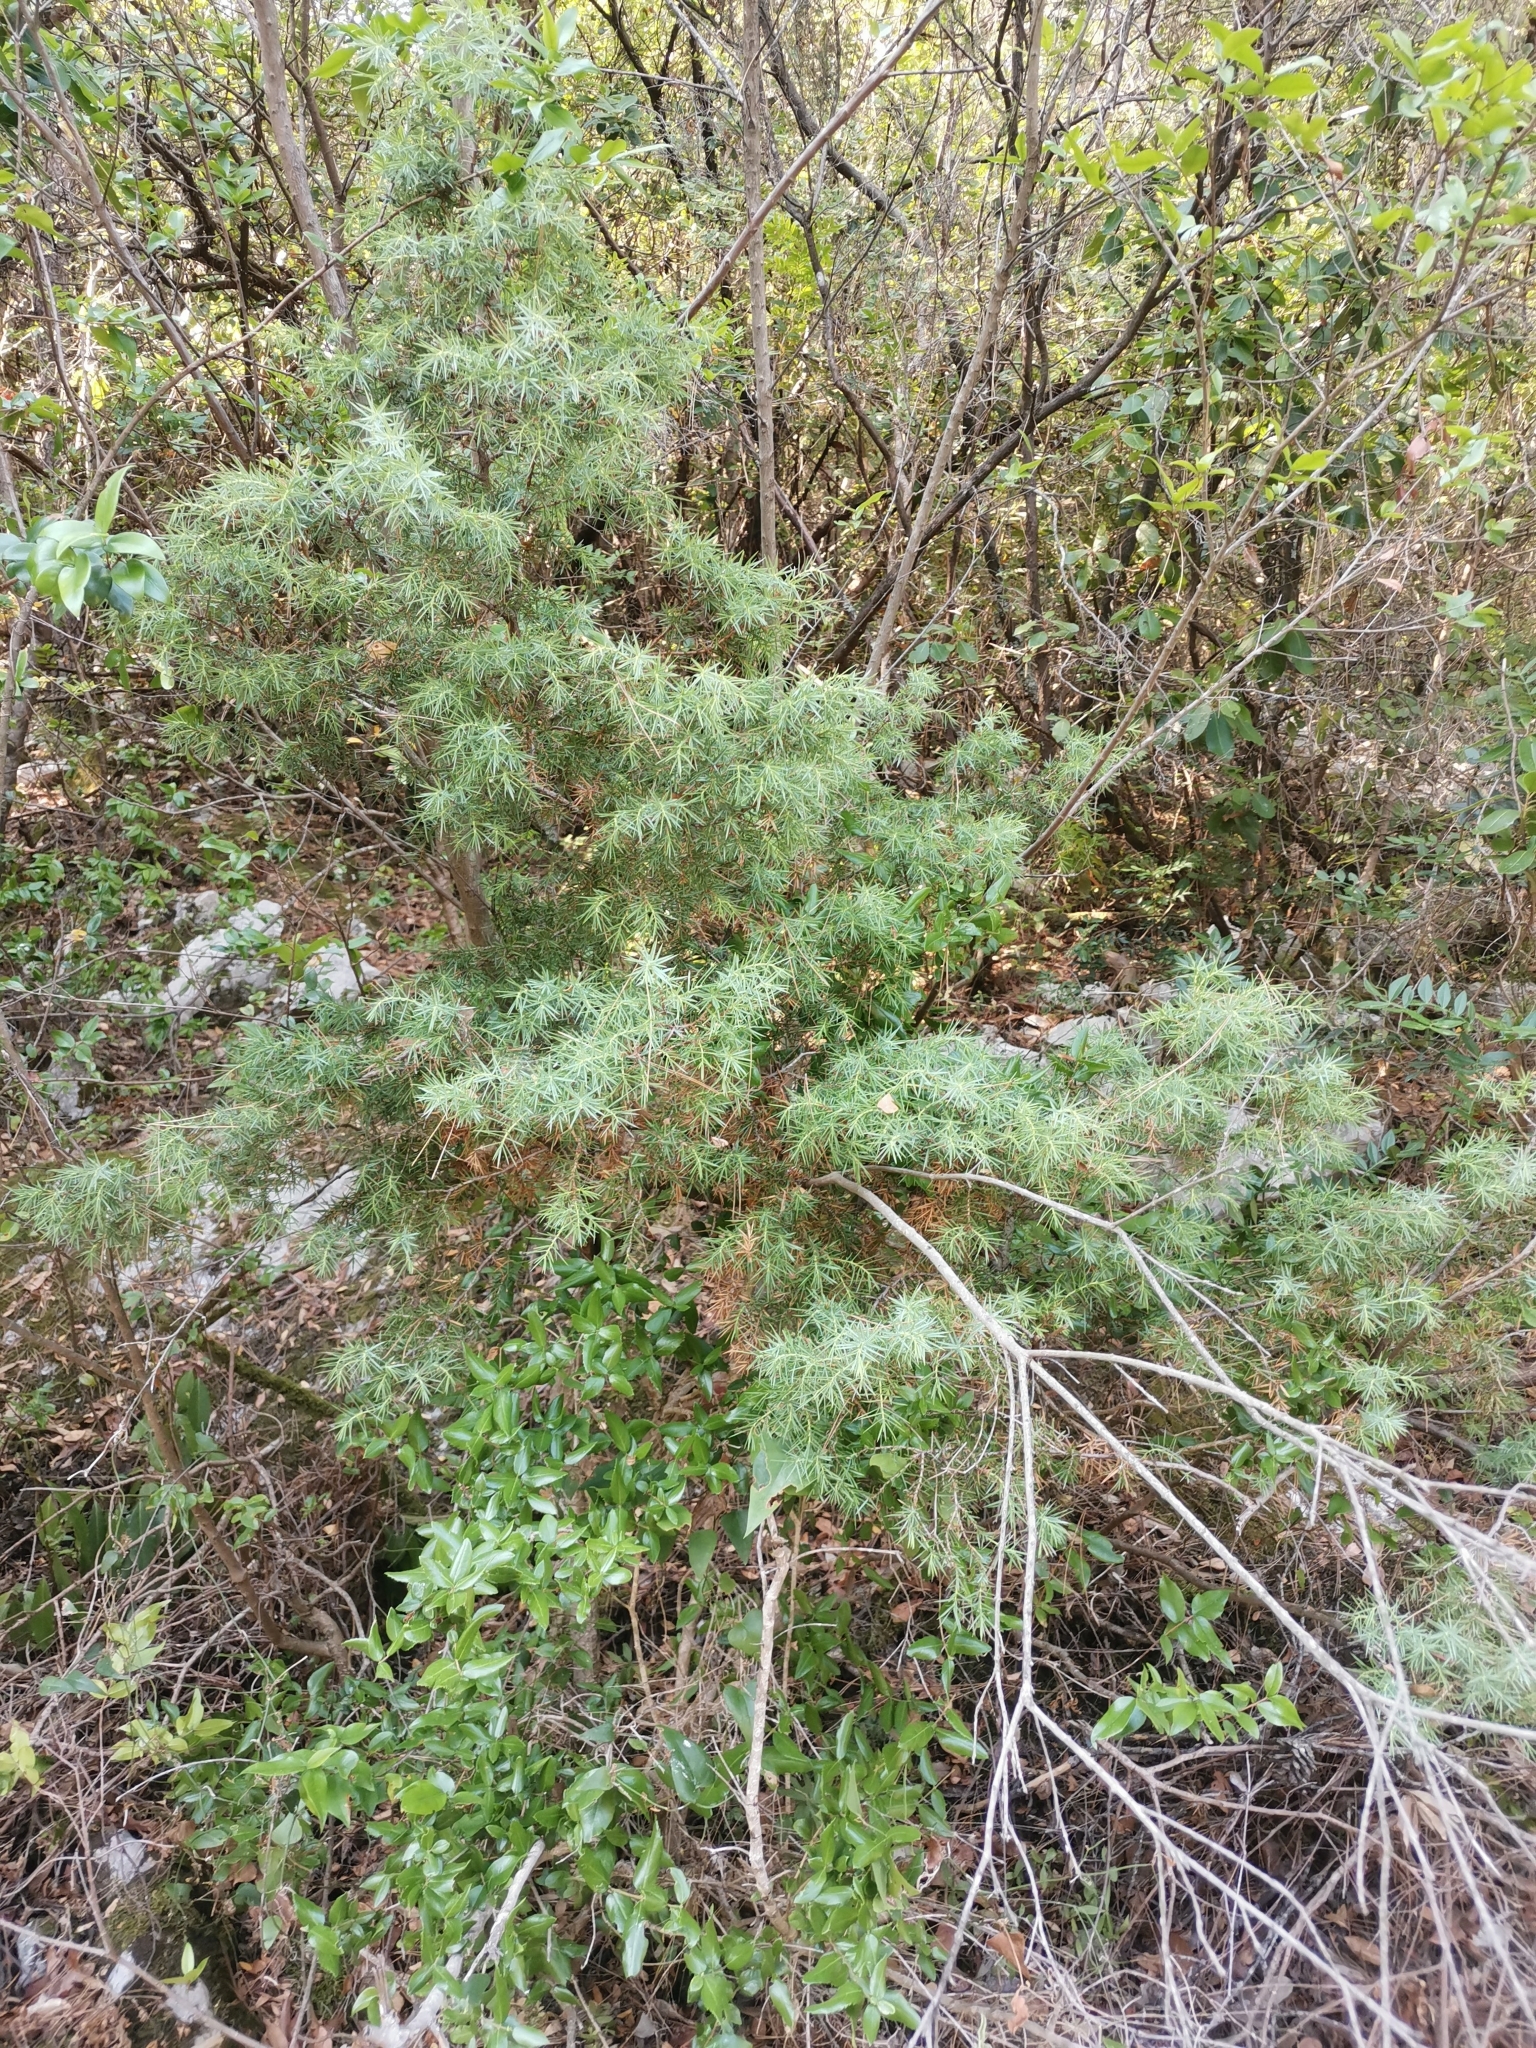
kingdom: Plantae
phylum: Tracheophyta
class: Pinopsida
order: Pinales
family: Cupressaceae
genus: Juniperus
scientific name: Juniperus oxycedrus
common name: Prickly juniper
